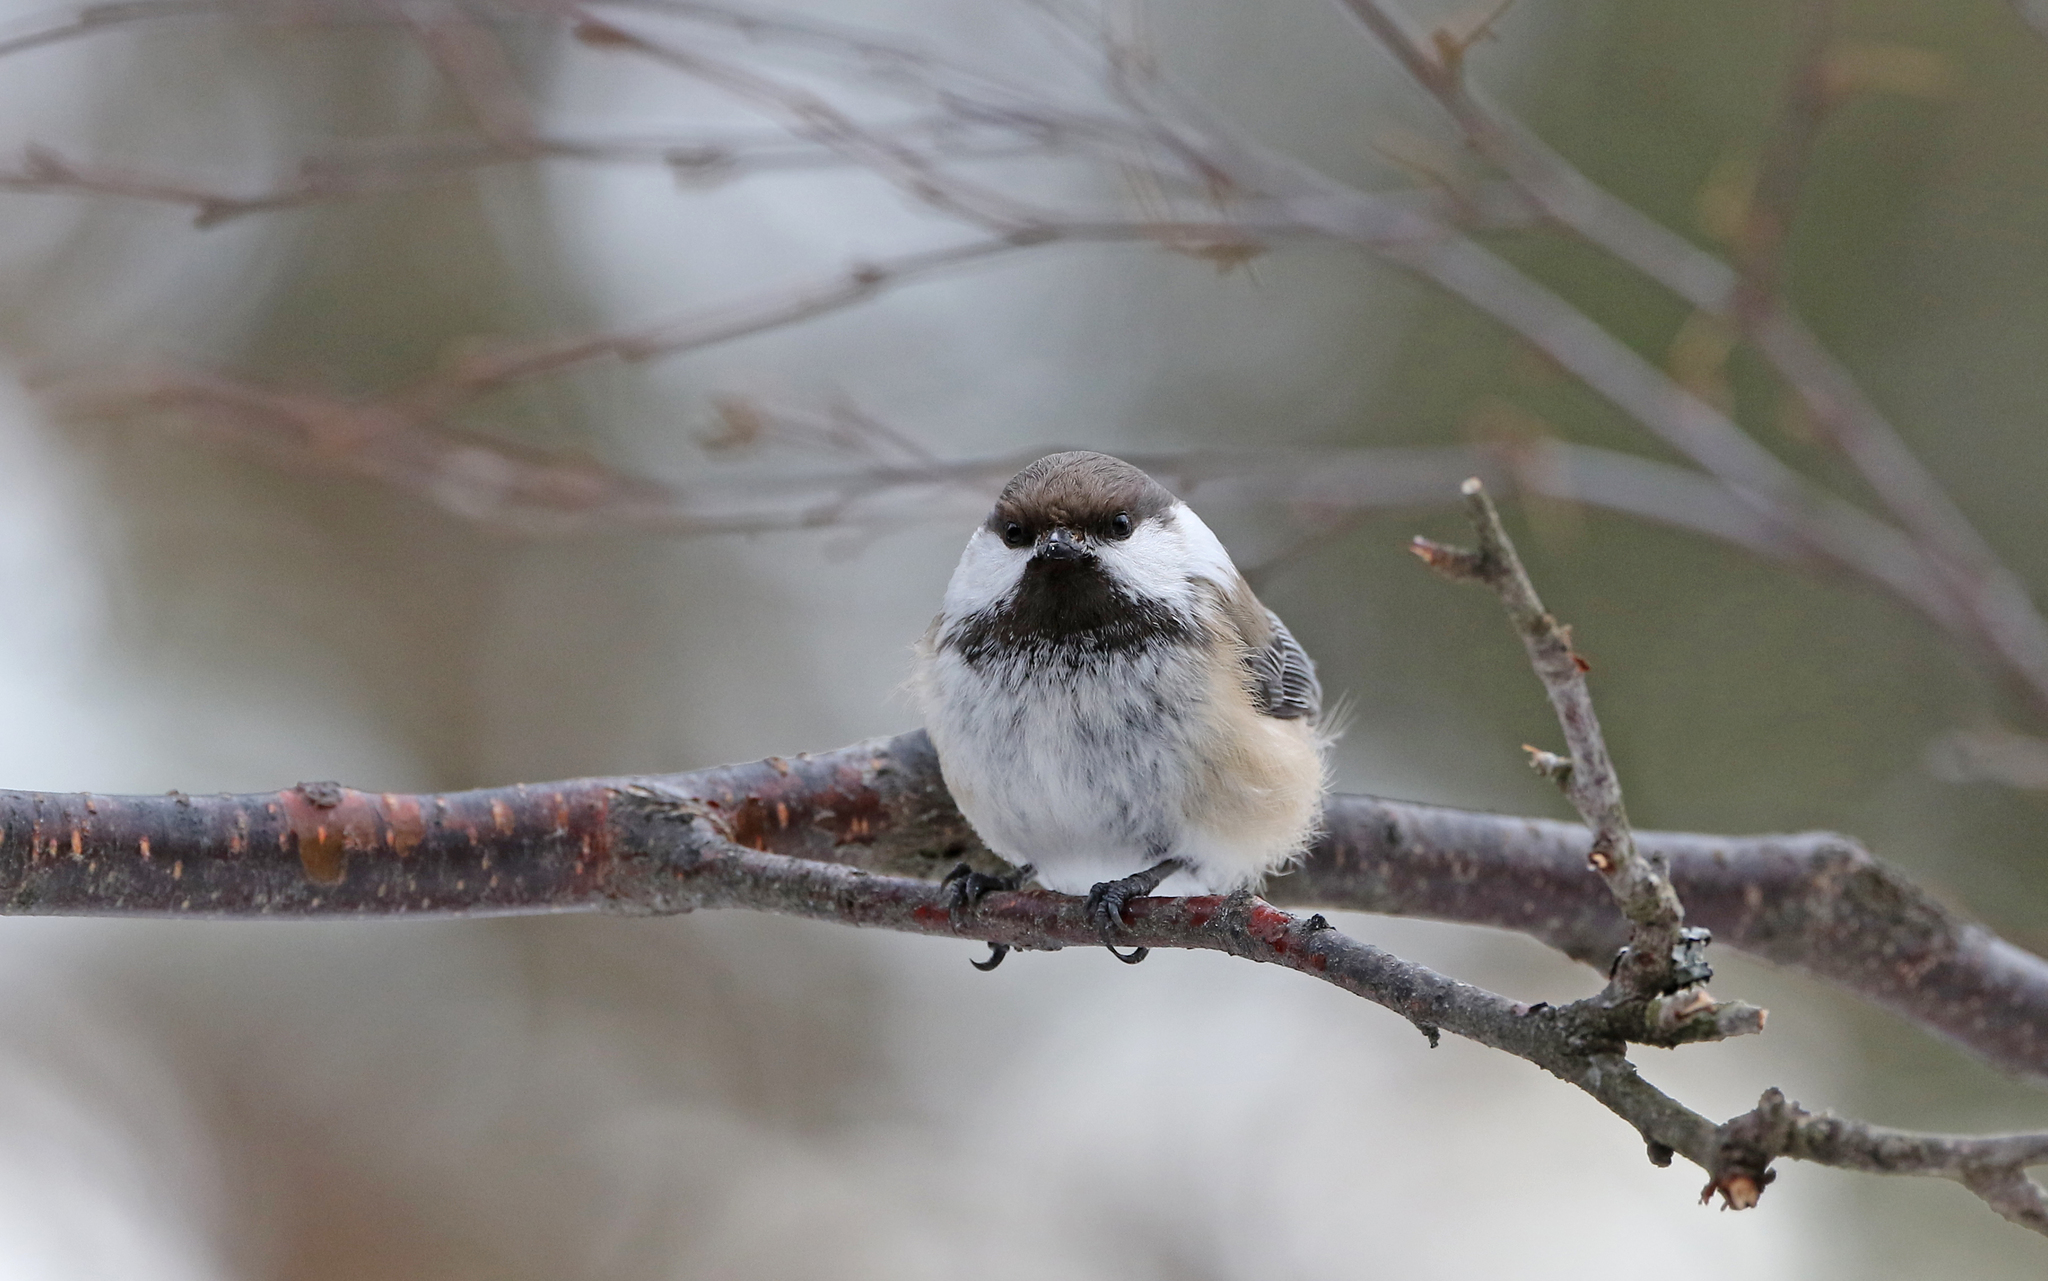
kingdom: Animalia
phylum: Chordata
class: Aves
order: Passeriformes
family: Paridae
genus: Poecile
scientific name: Poecile cinctus
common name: Gray-headed chickadee
